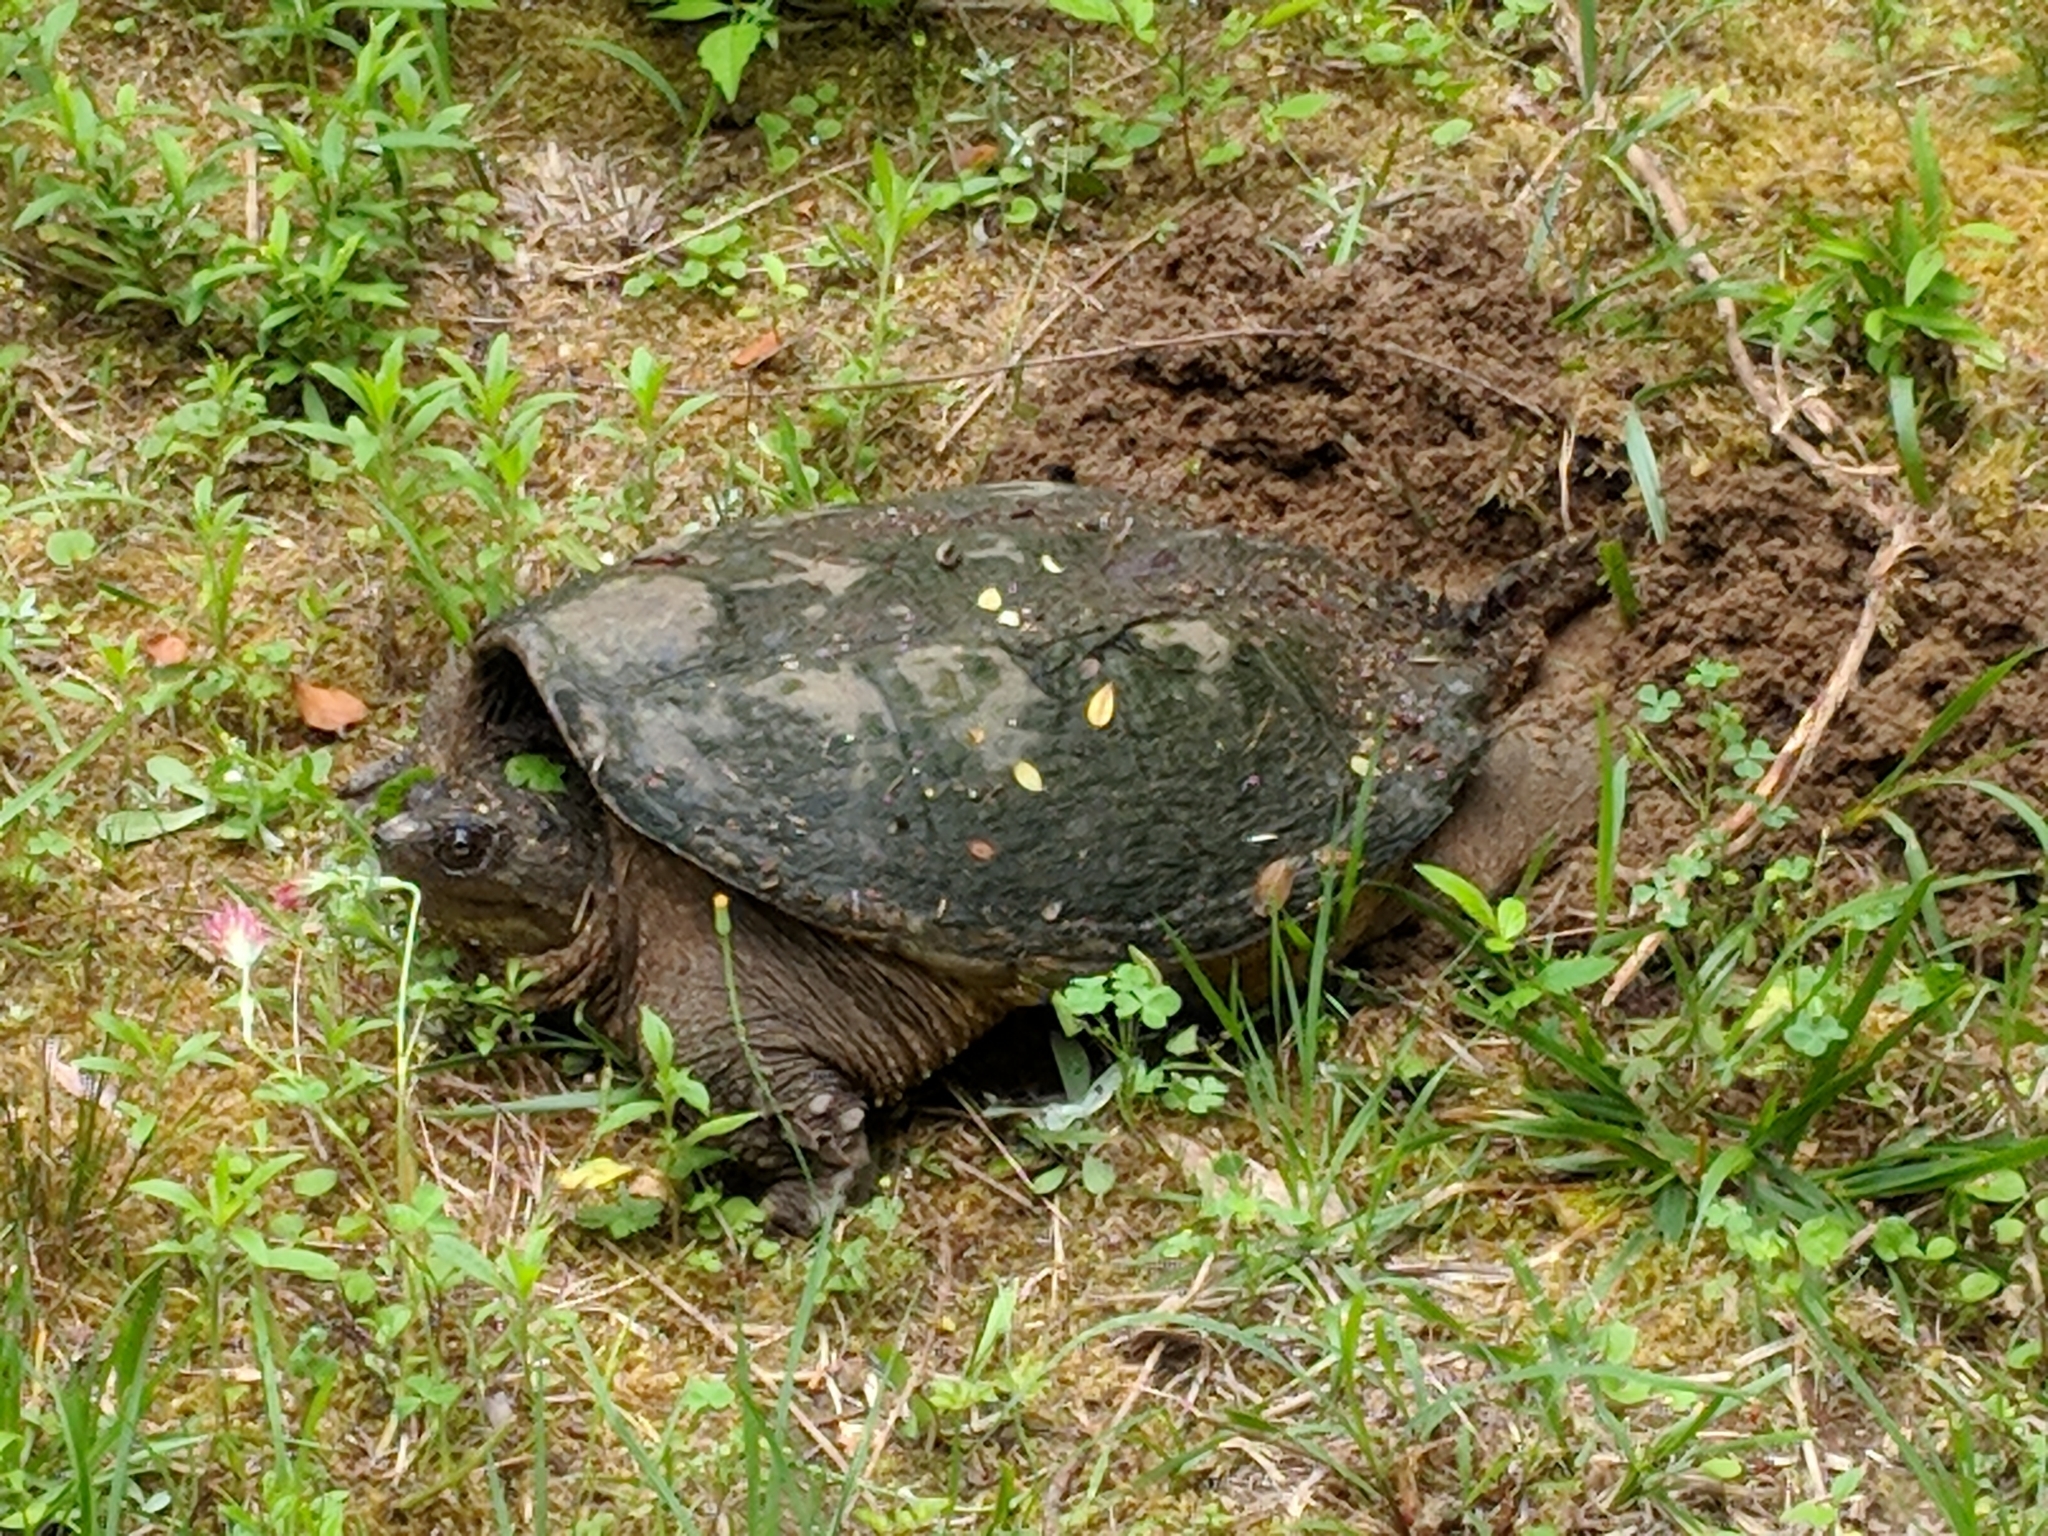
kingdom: Animalia
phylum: Chordata
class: Testudines
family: Chelydridae
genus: Chelydra
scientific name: Chelydra serpentina
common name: Common snapping turtle
